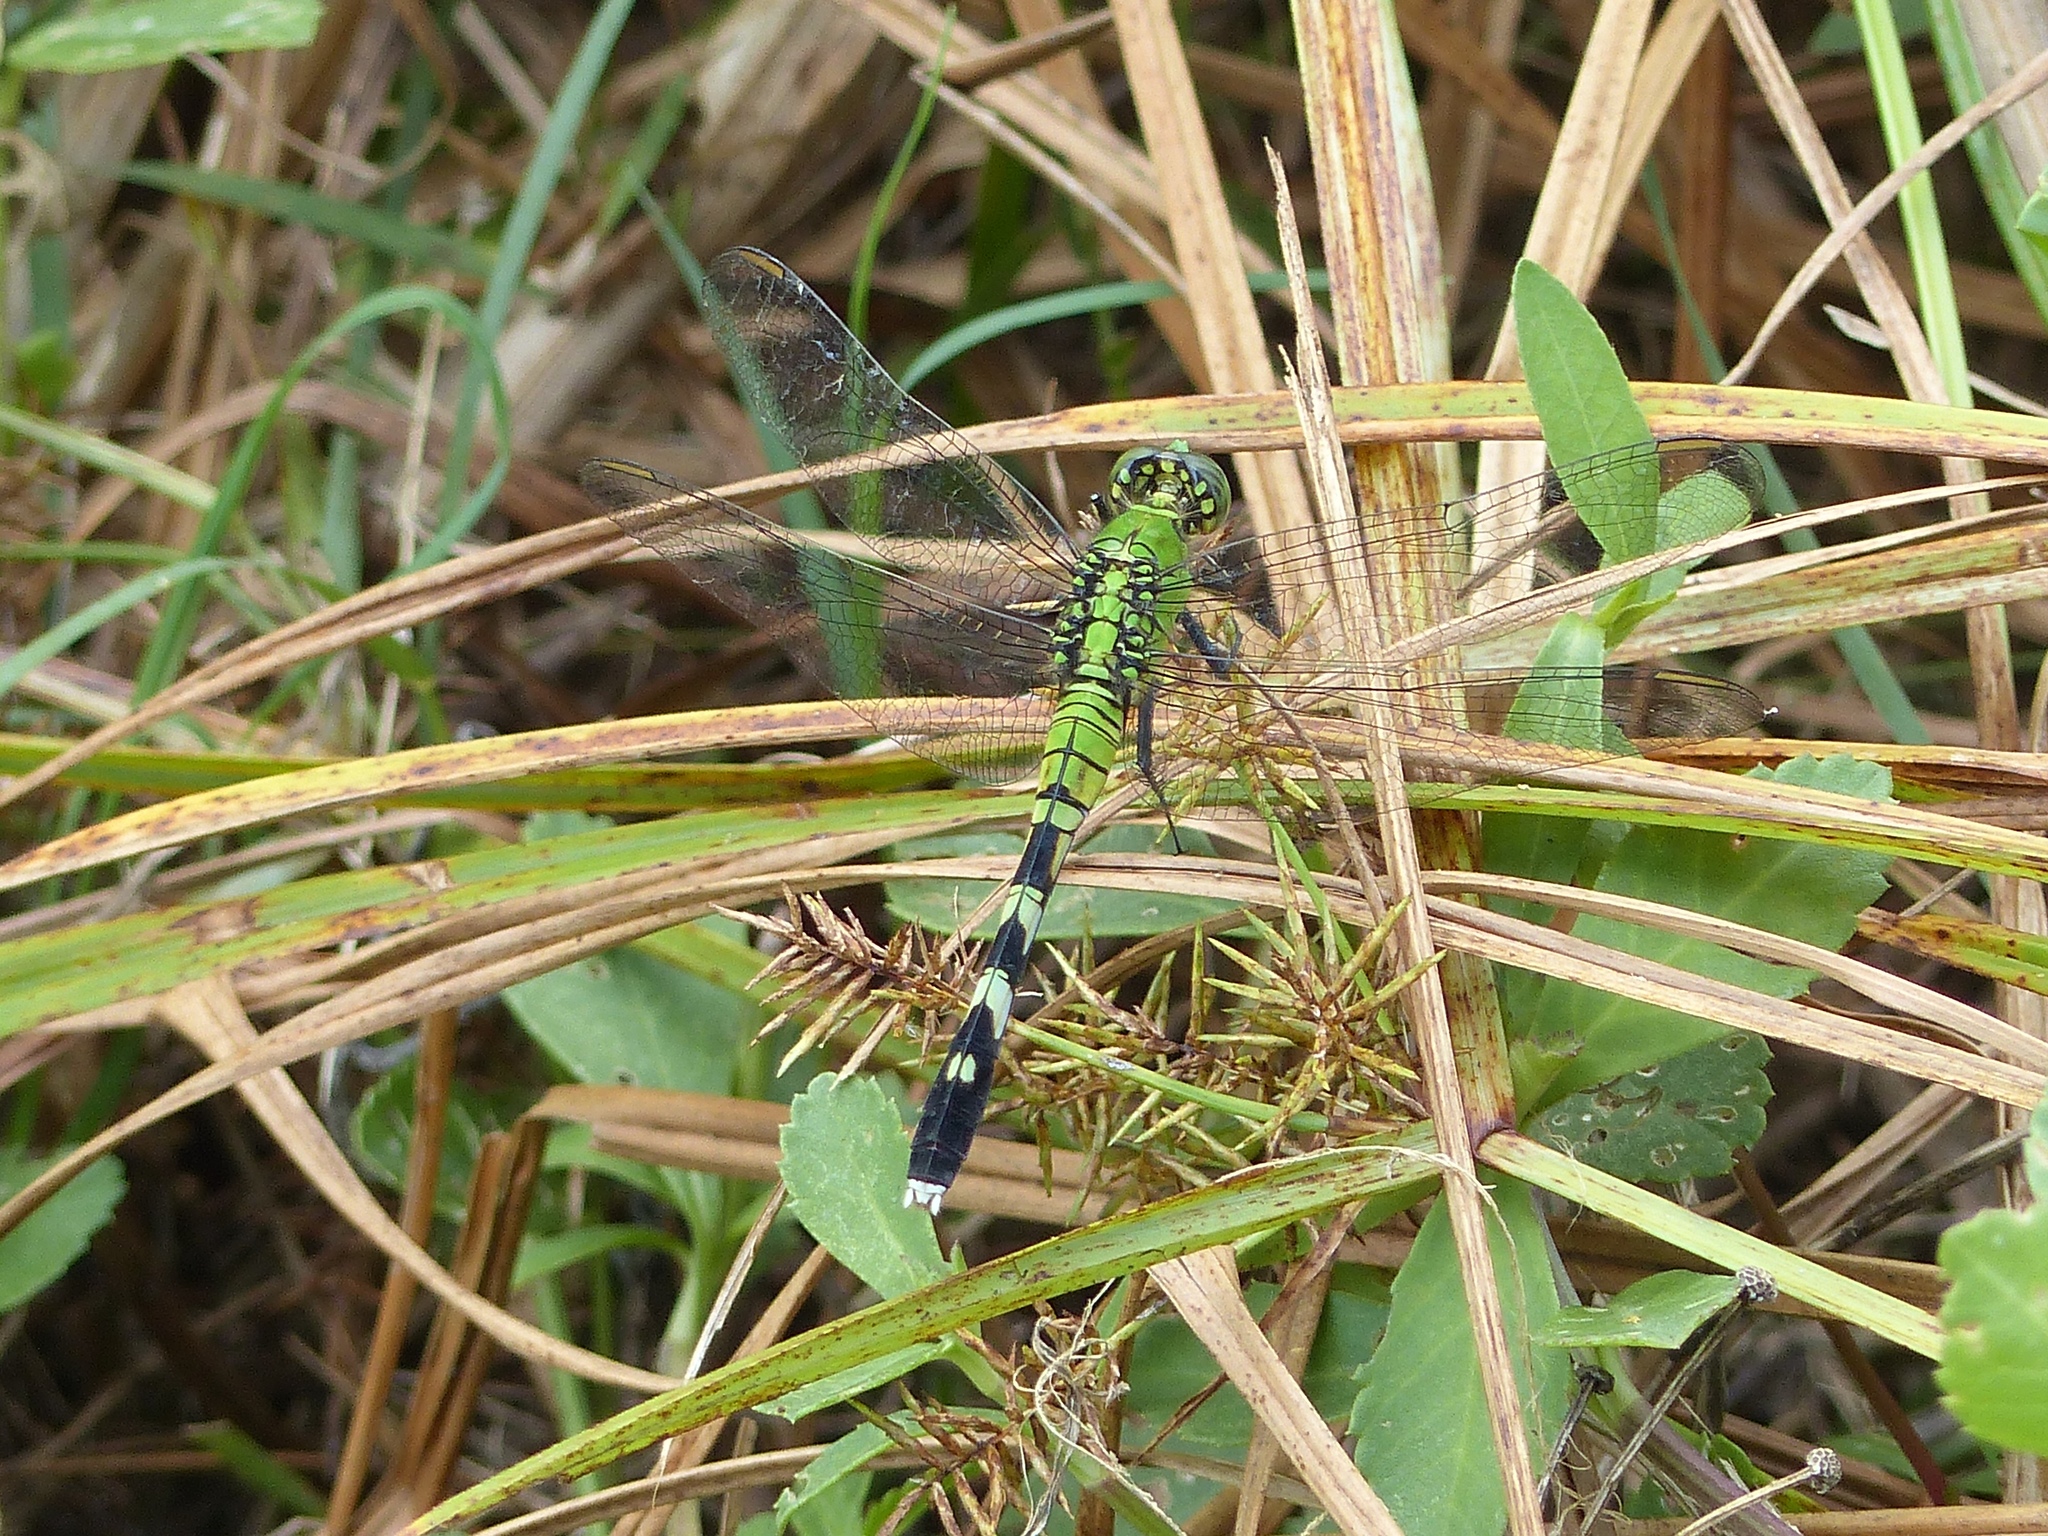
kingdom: Animalia
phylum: Arthropoda
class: Insecta
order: Odonata
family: Libellulidae
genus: Erythemis
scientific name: Erythemis simplicicollis
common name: Eastern pondhawk
